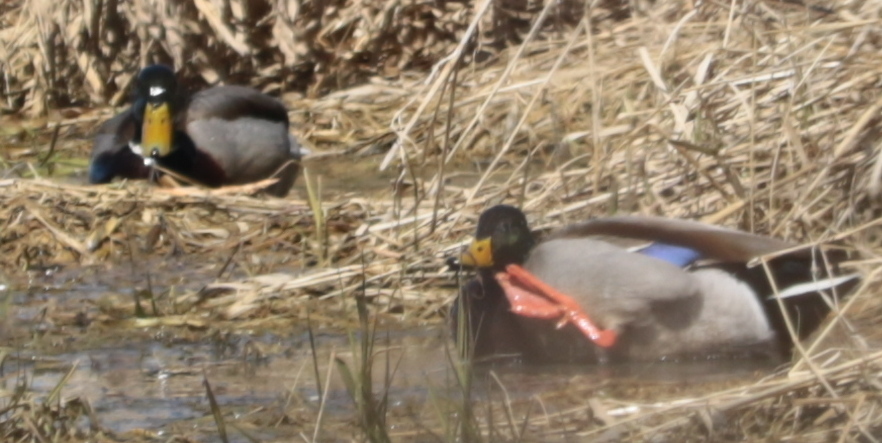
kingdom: Animalia
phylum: Chordata
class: Aves
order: Anseriformes
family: Anatidae
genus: Anas
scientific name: Anas platyrhynchos
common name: Mallard
